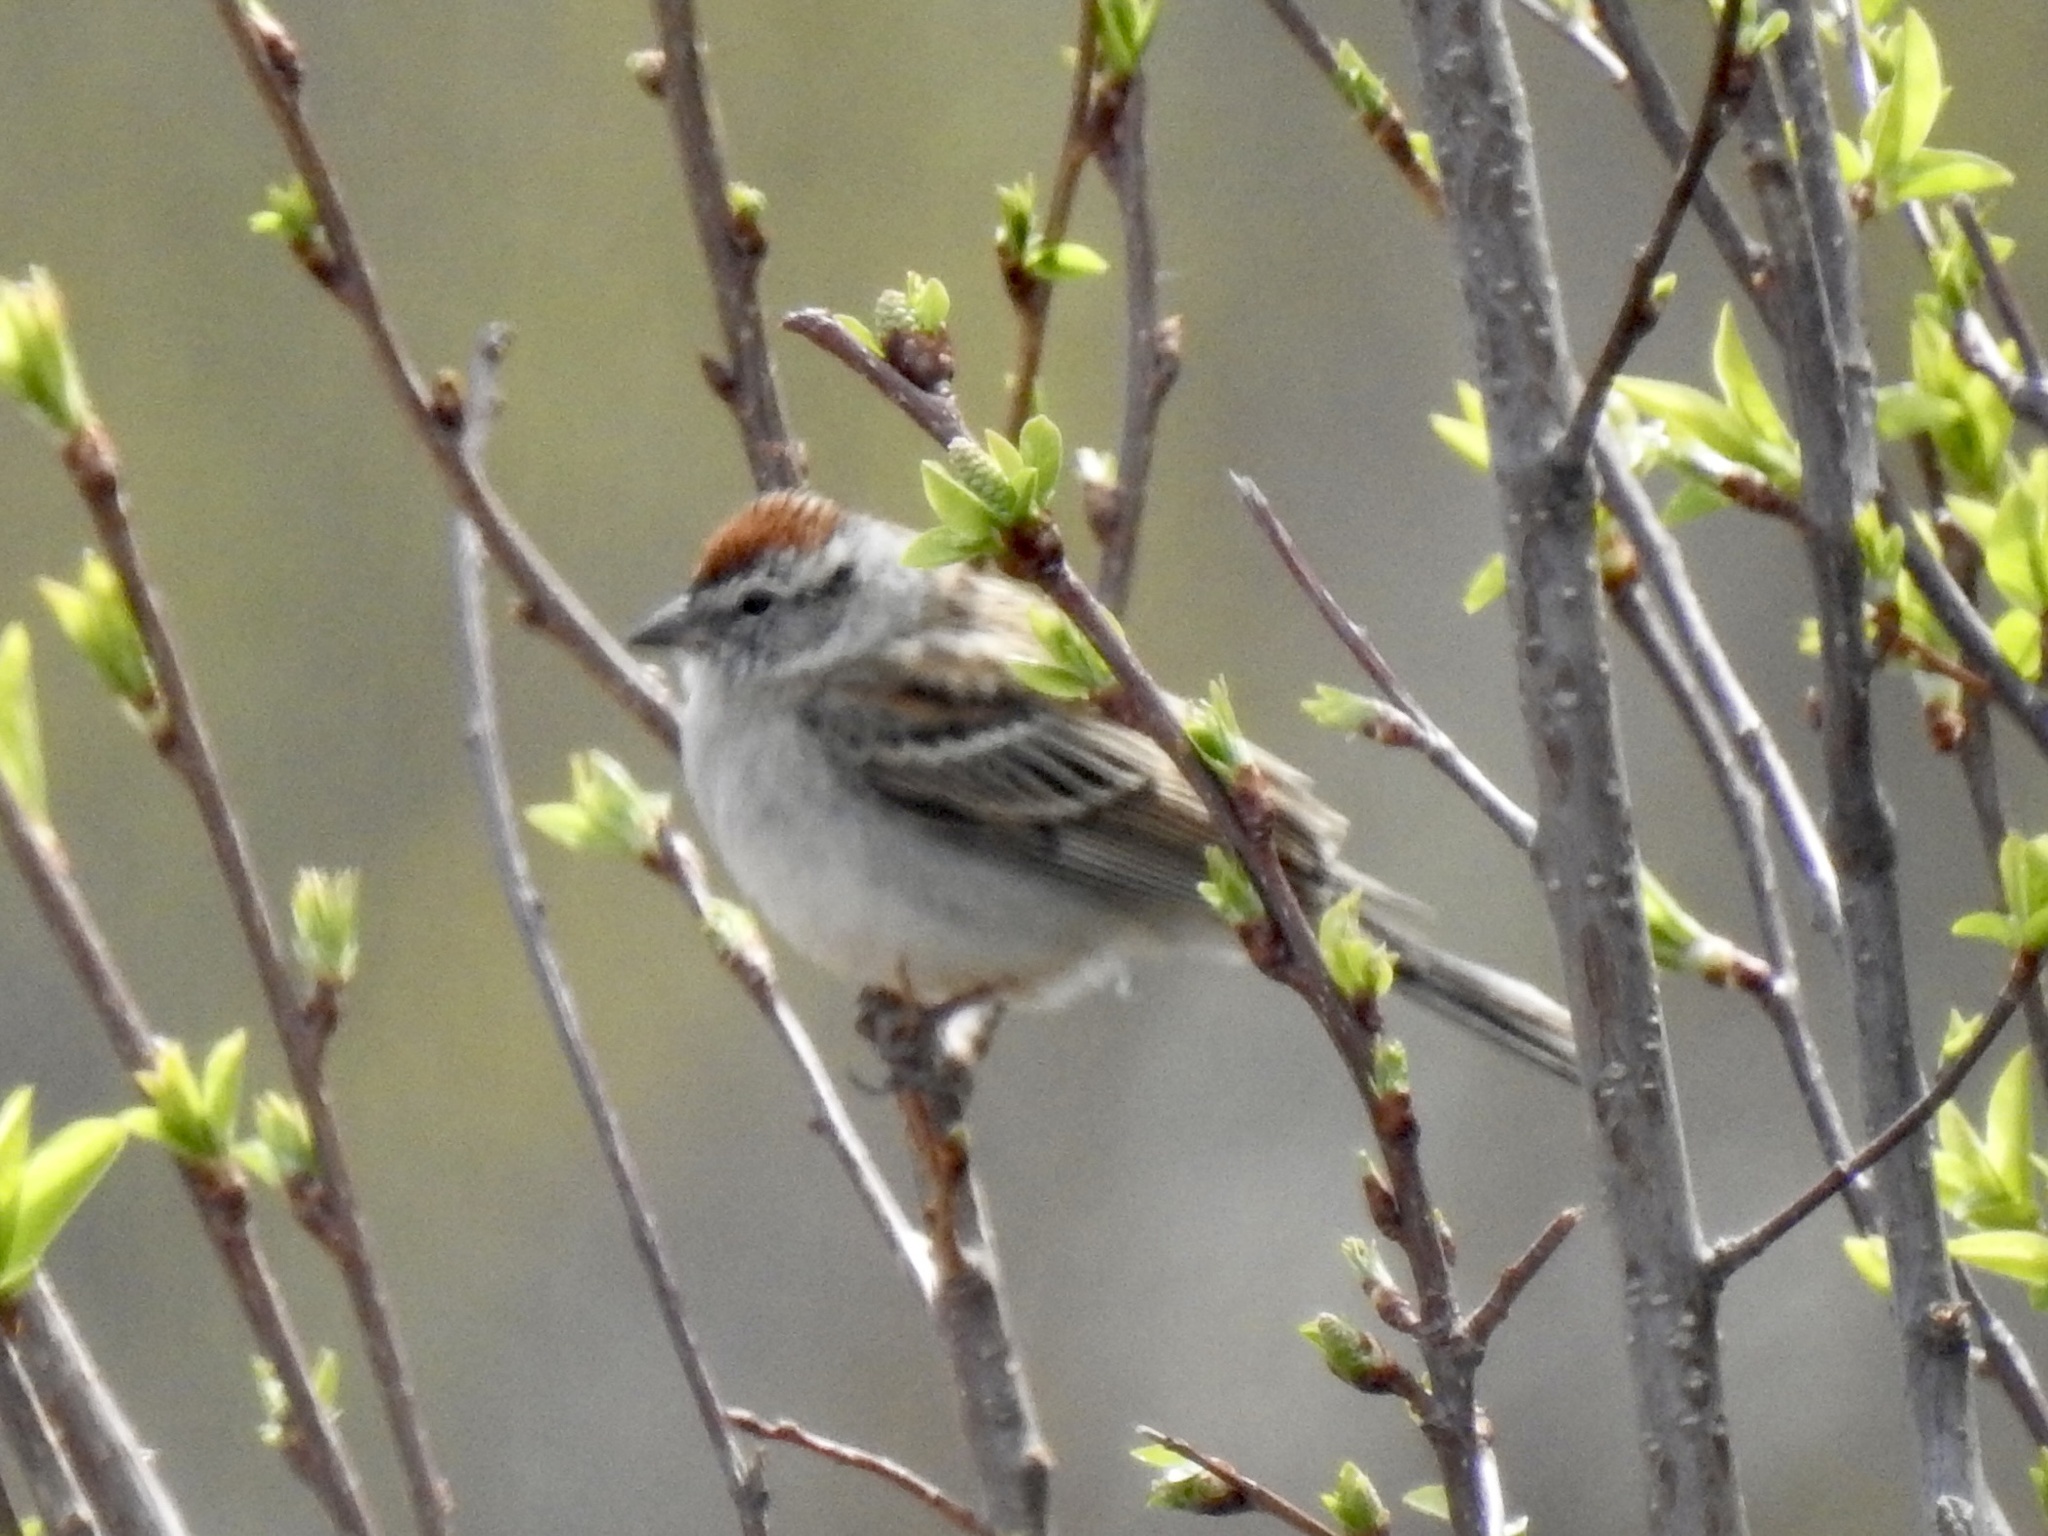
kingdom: Animalia
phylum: Chordata
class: Aves
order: Passeriformes
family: Passerellidae
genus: Spizella
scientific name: Spizella passerina
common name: Chipping sparrow
